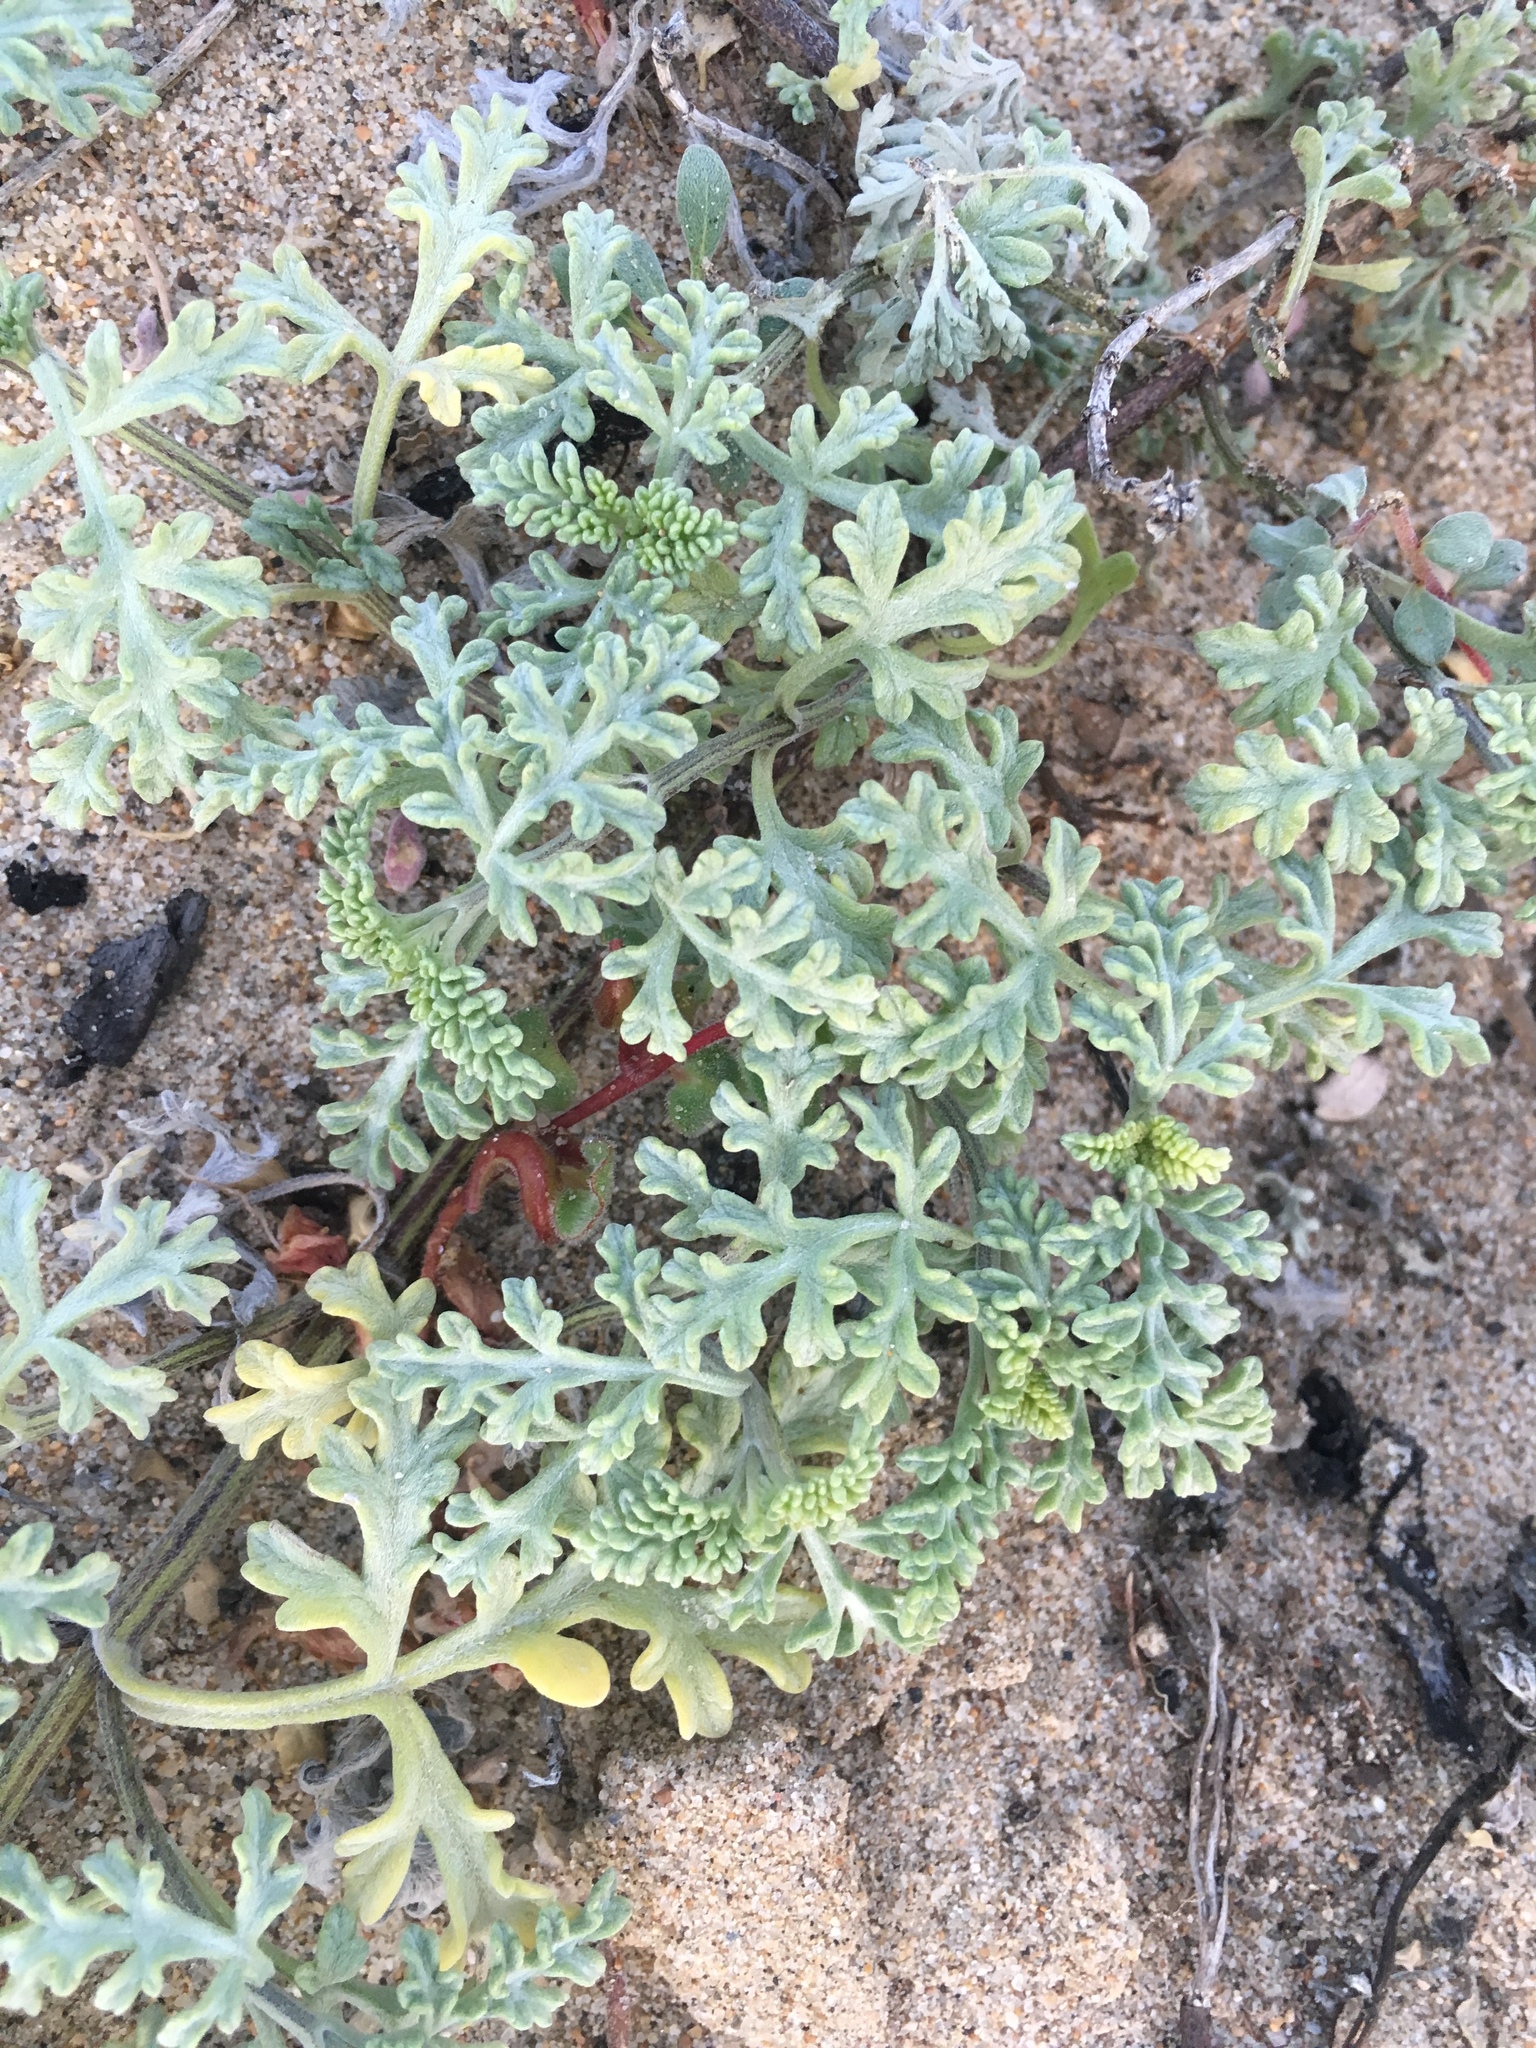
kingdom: Plantae
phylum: Tracheophyta
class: Magnoliopsida
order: Asterales
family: Asteraceae
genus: Ambrosia
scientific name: Ambrosia chamissonis
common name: Beachbur
